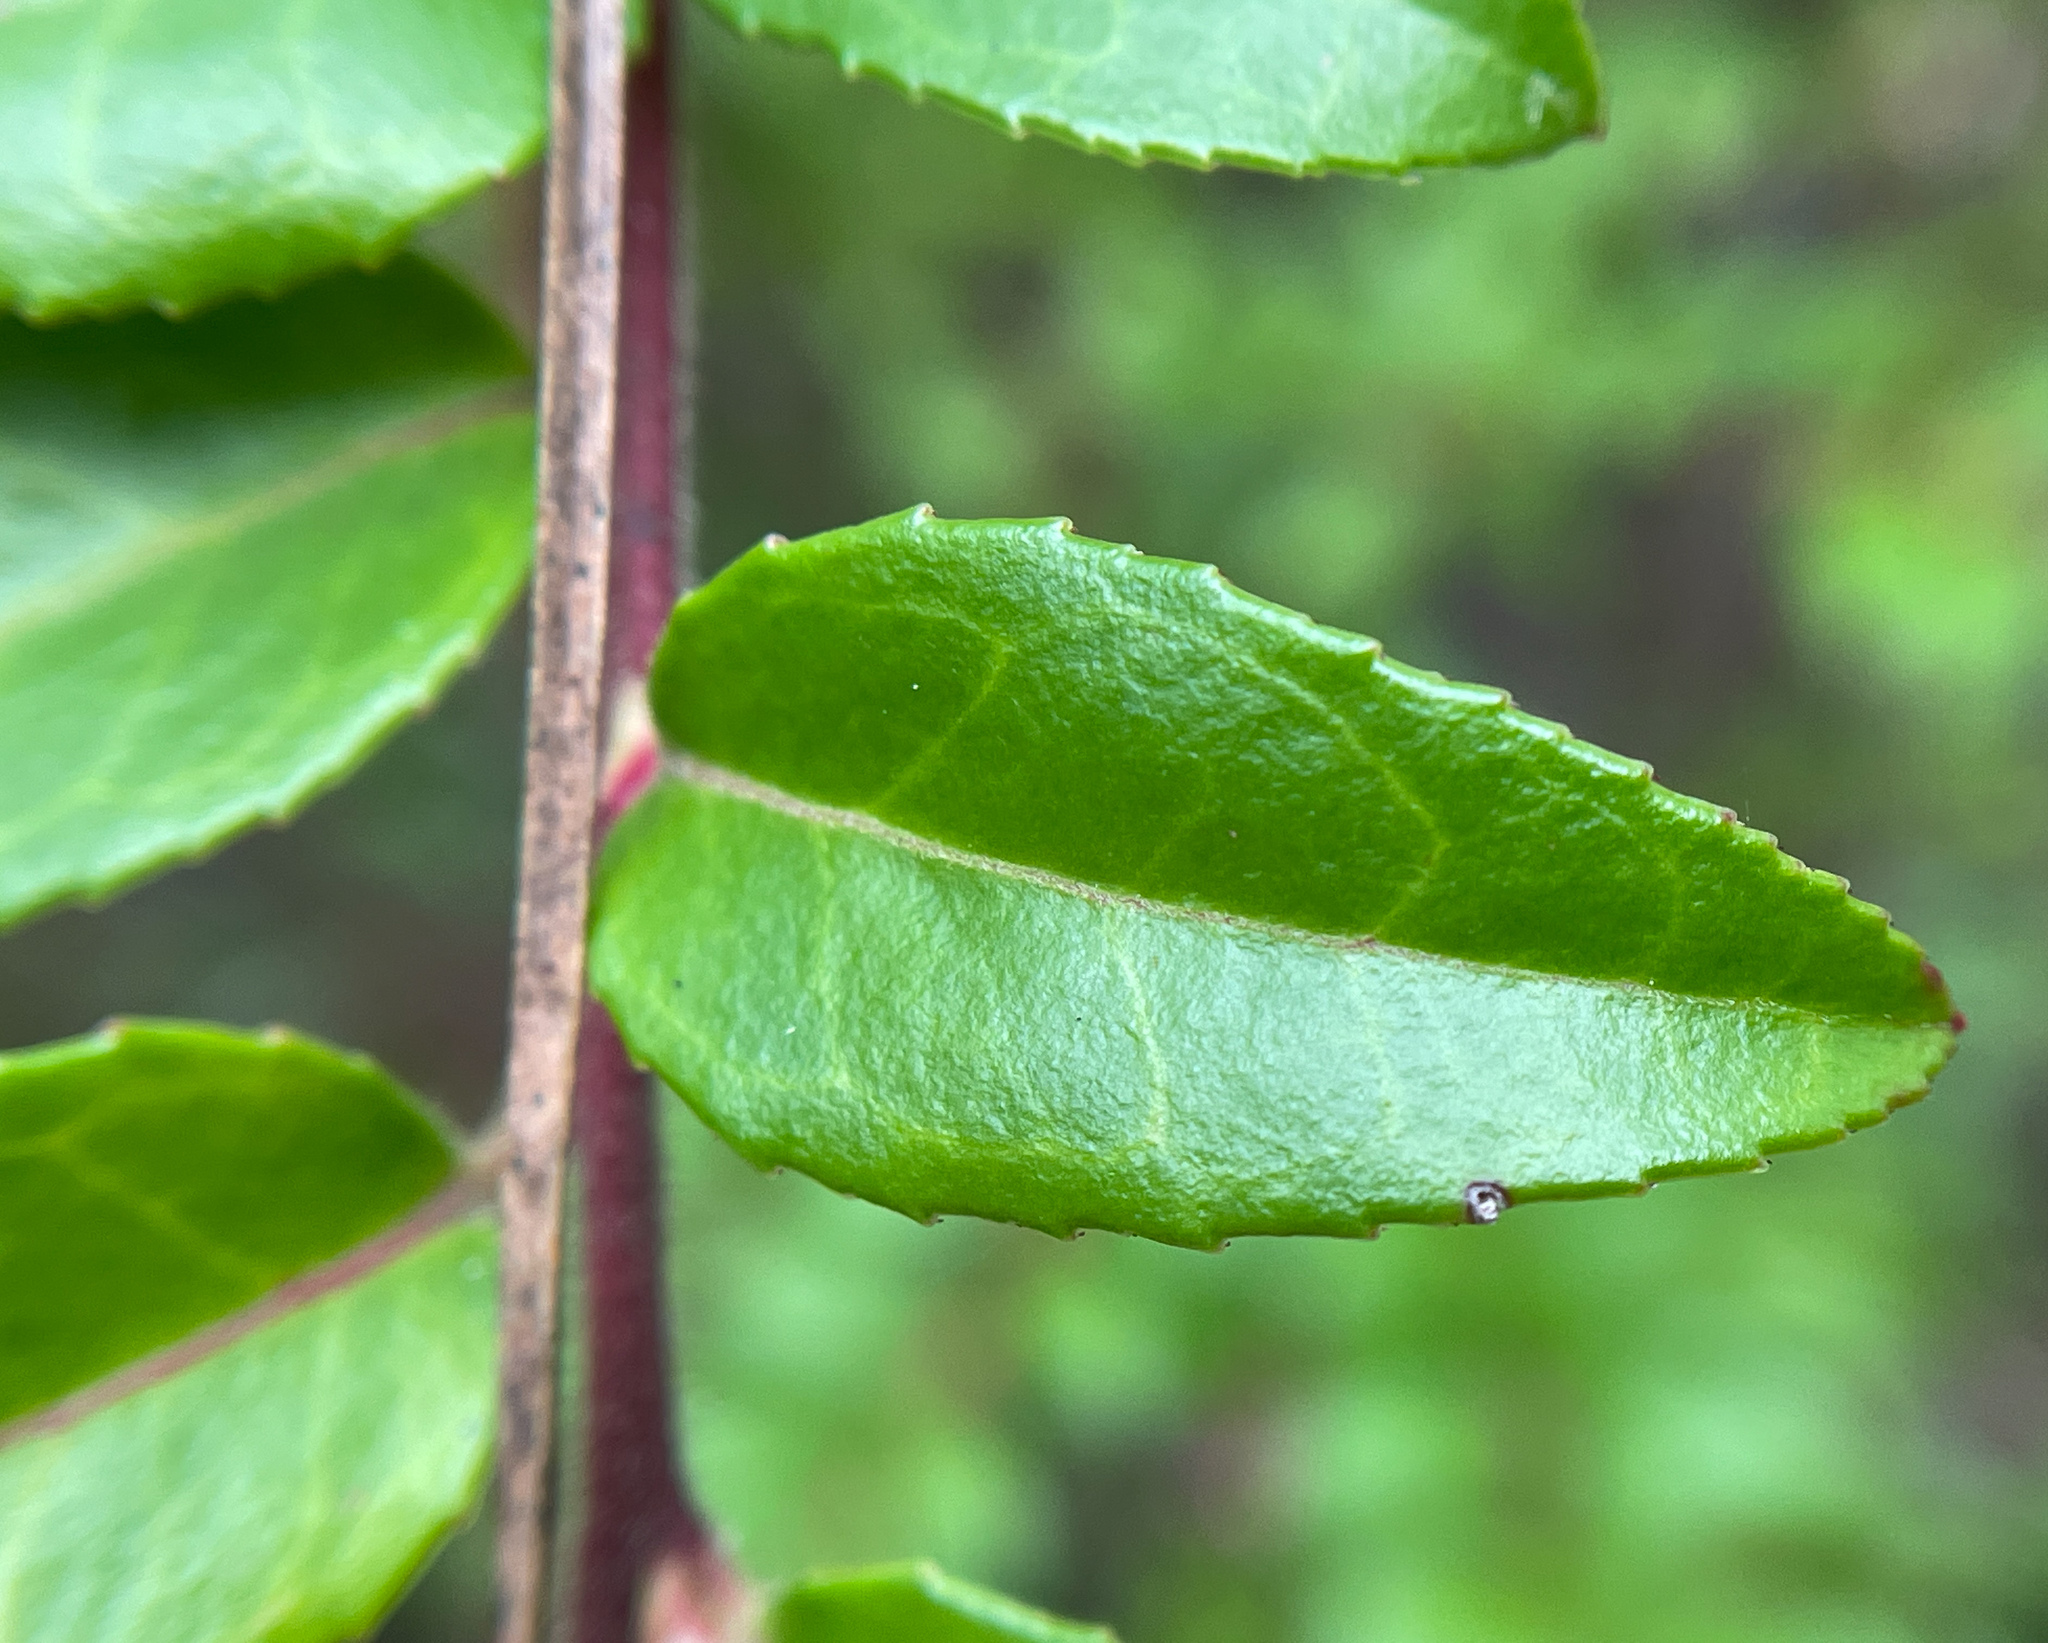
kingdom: Plantae
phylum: Tracheophyta
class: Magnoliopsida
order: Ericales
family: Ericaceae
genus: Vaccinium
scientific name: Vaccinium ovatum
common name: California-huckleberry
